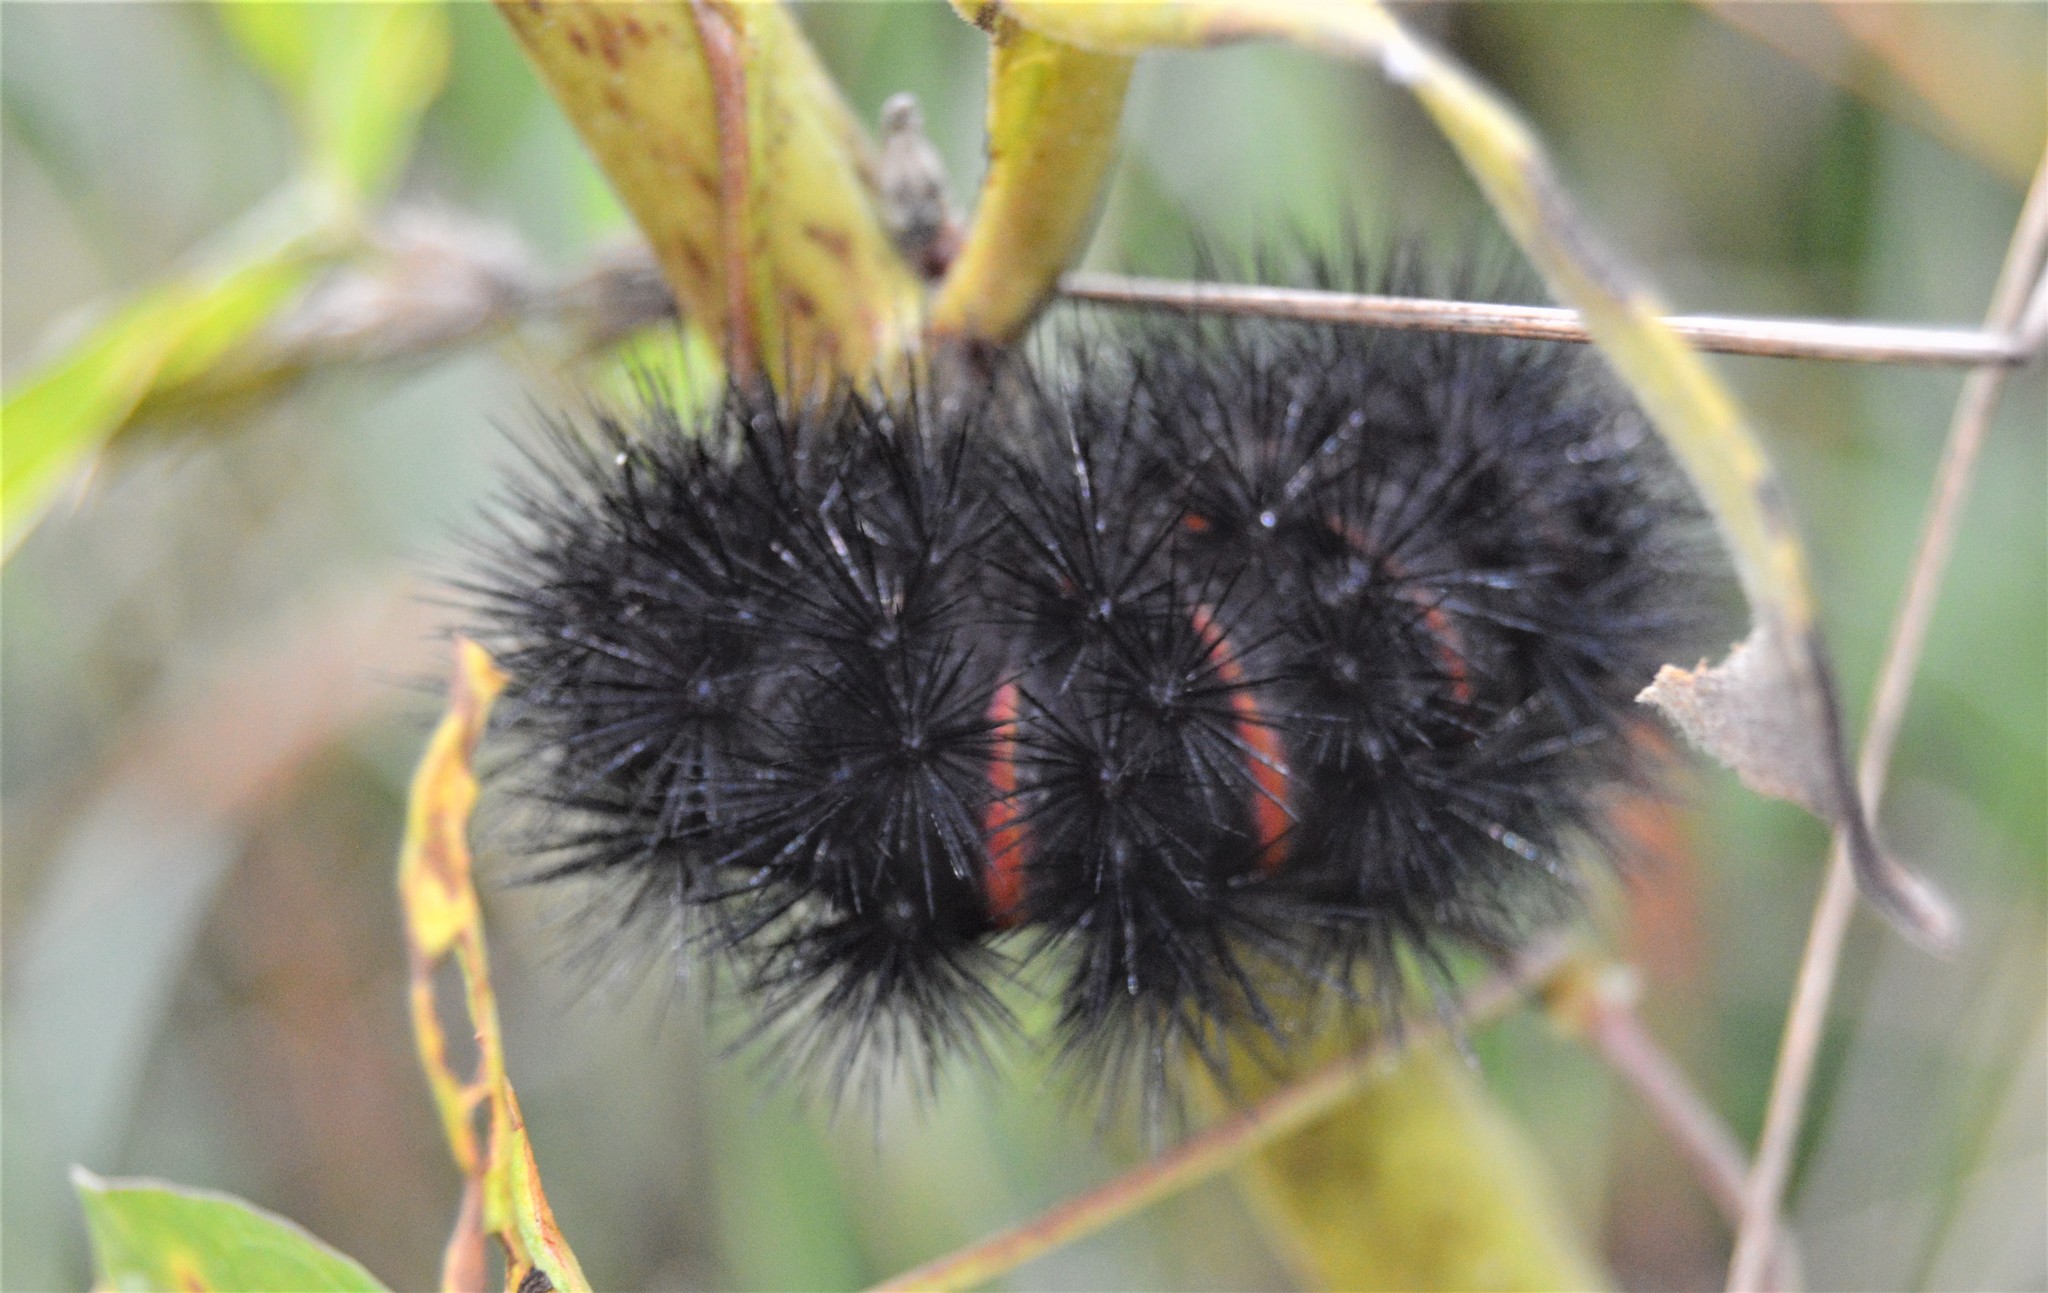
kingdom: Animalia
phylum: Arthropoda
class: Insecta
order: Lepidoptera
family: Erebidae
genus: Hypercompe
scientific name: Hypercompe scribonia
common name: Giant leopard moth
